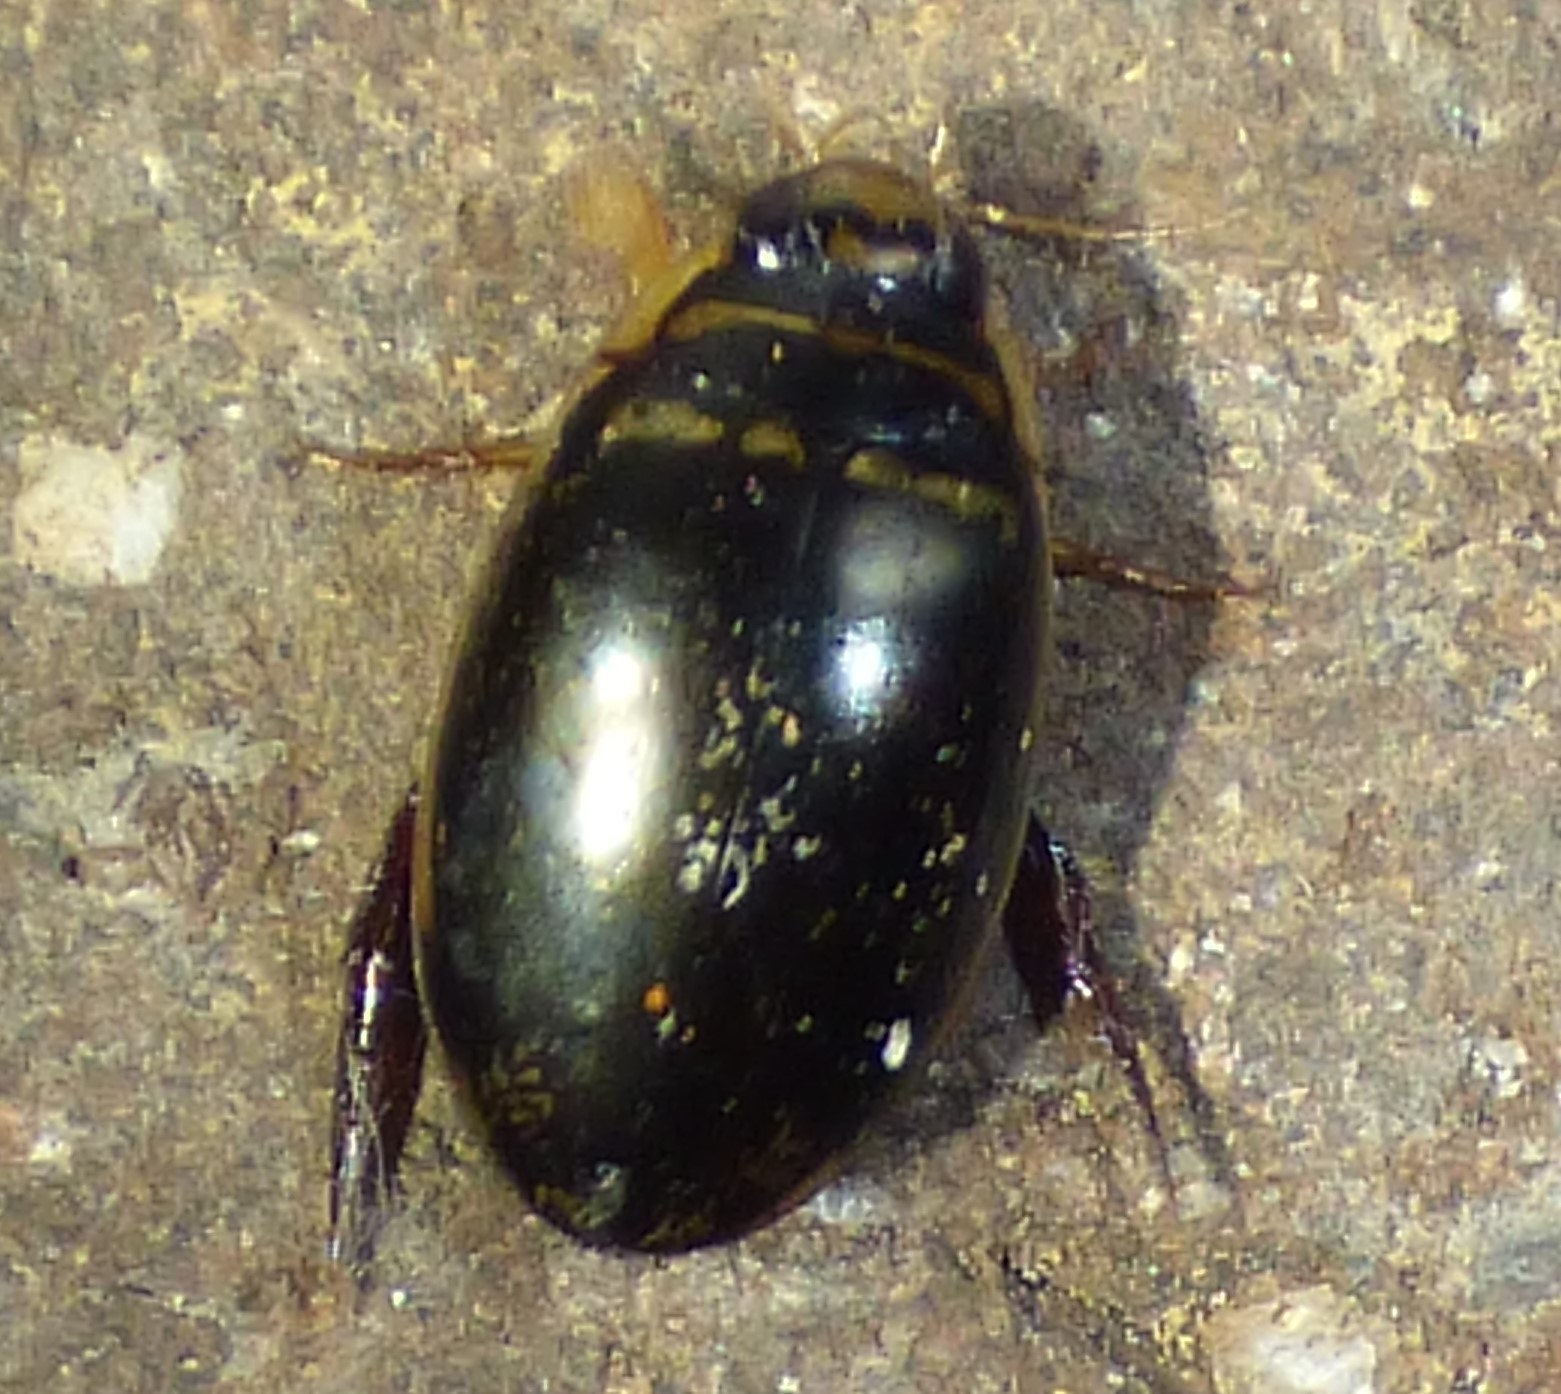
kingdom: Animalia
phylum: Arthropoda
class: Insecta
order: Coleoptera
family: Dytiscidae
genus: Thermonectus
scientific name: Thermonectus basillaris
